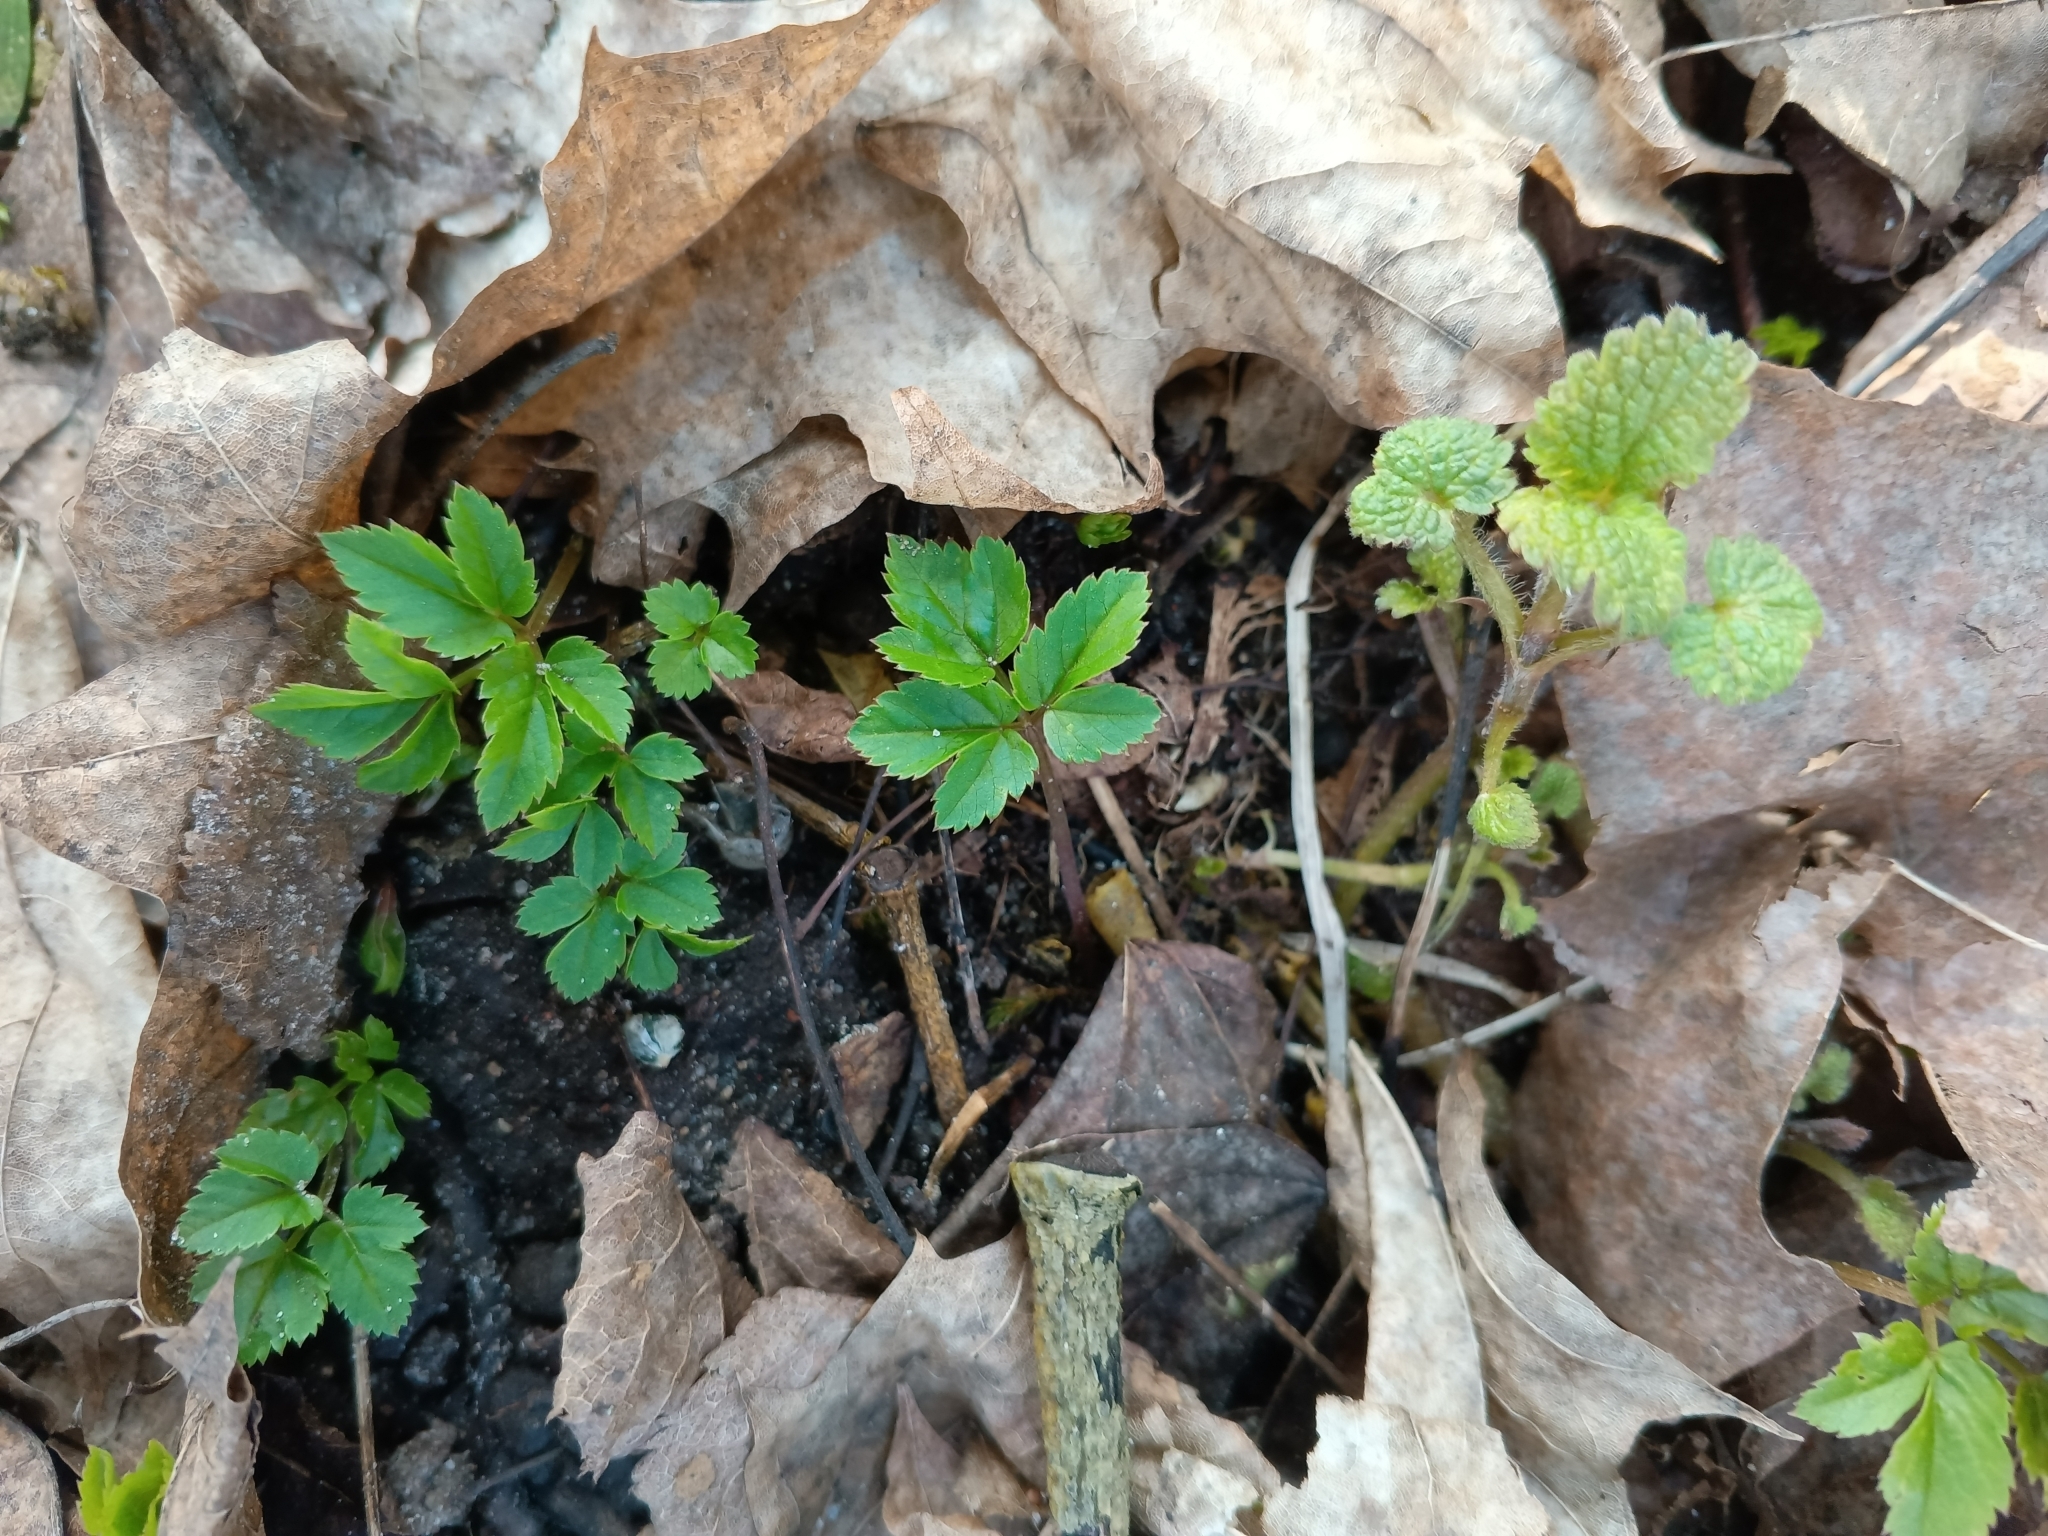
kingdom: Plantae
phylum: Tracheophyta
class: Magnoliopsida
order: Apiales
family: Apiaceae
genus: Aegopodium
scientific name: Aegopodium podagraria
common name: Ground-elder
